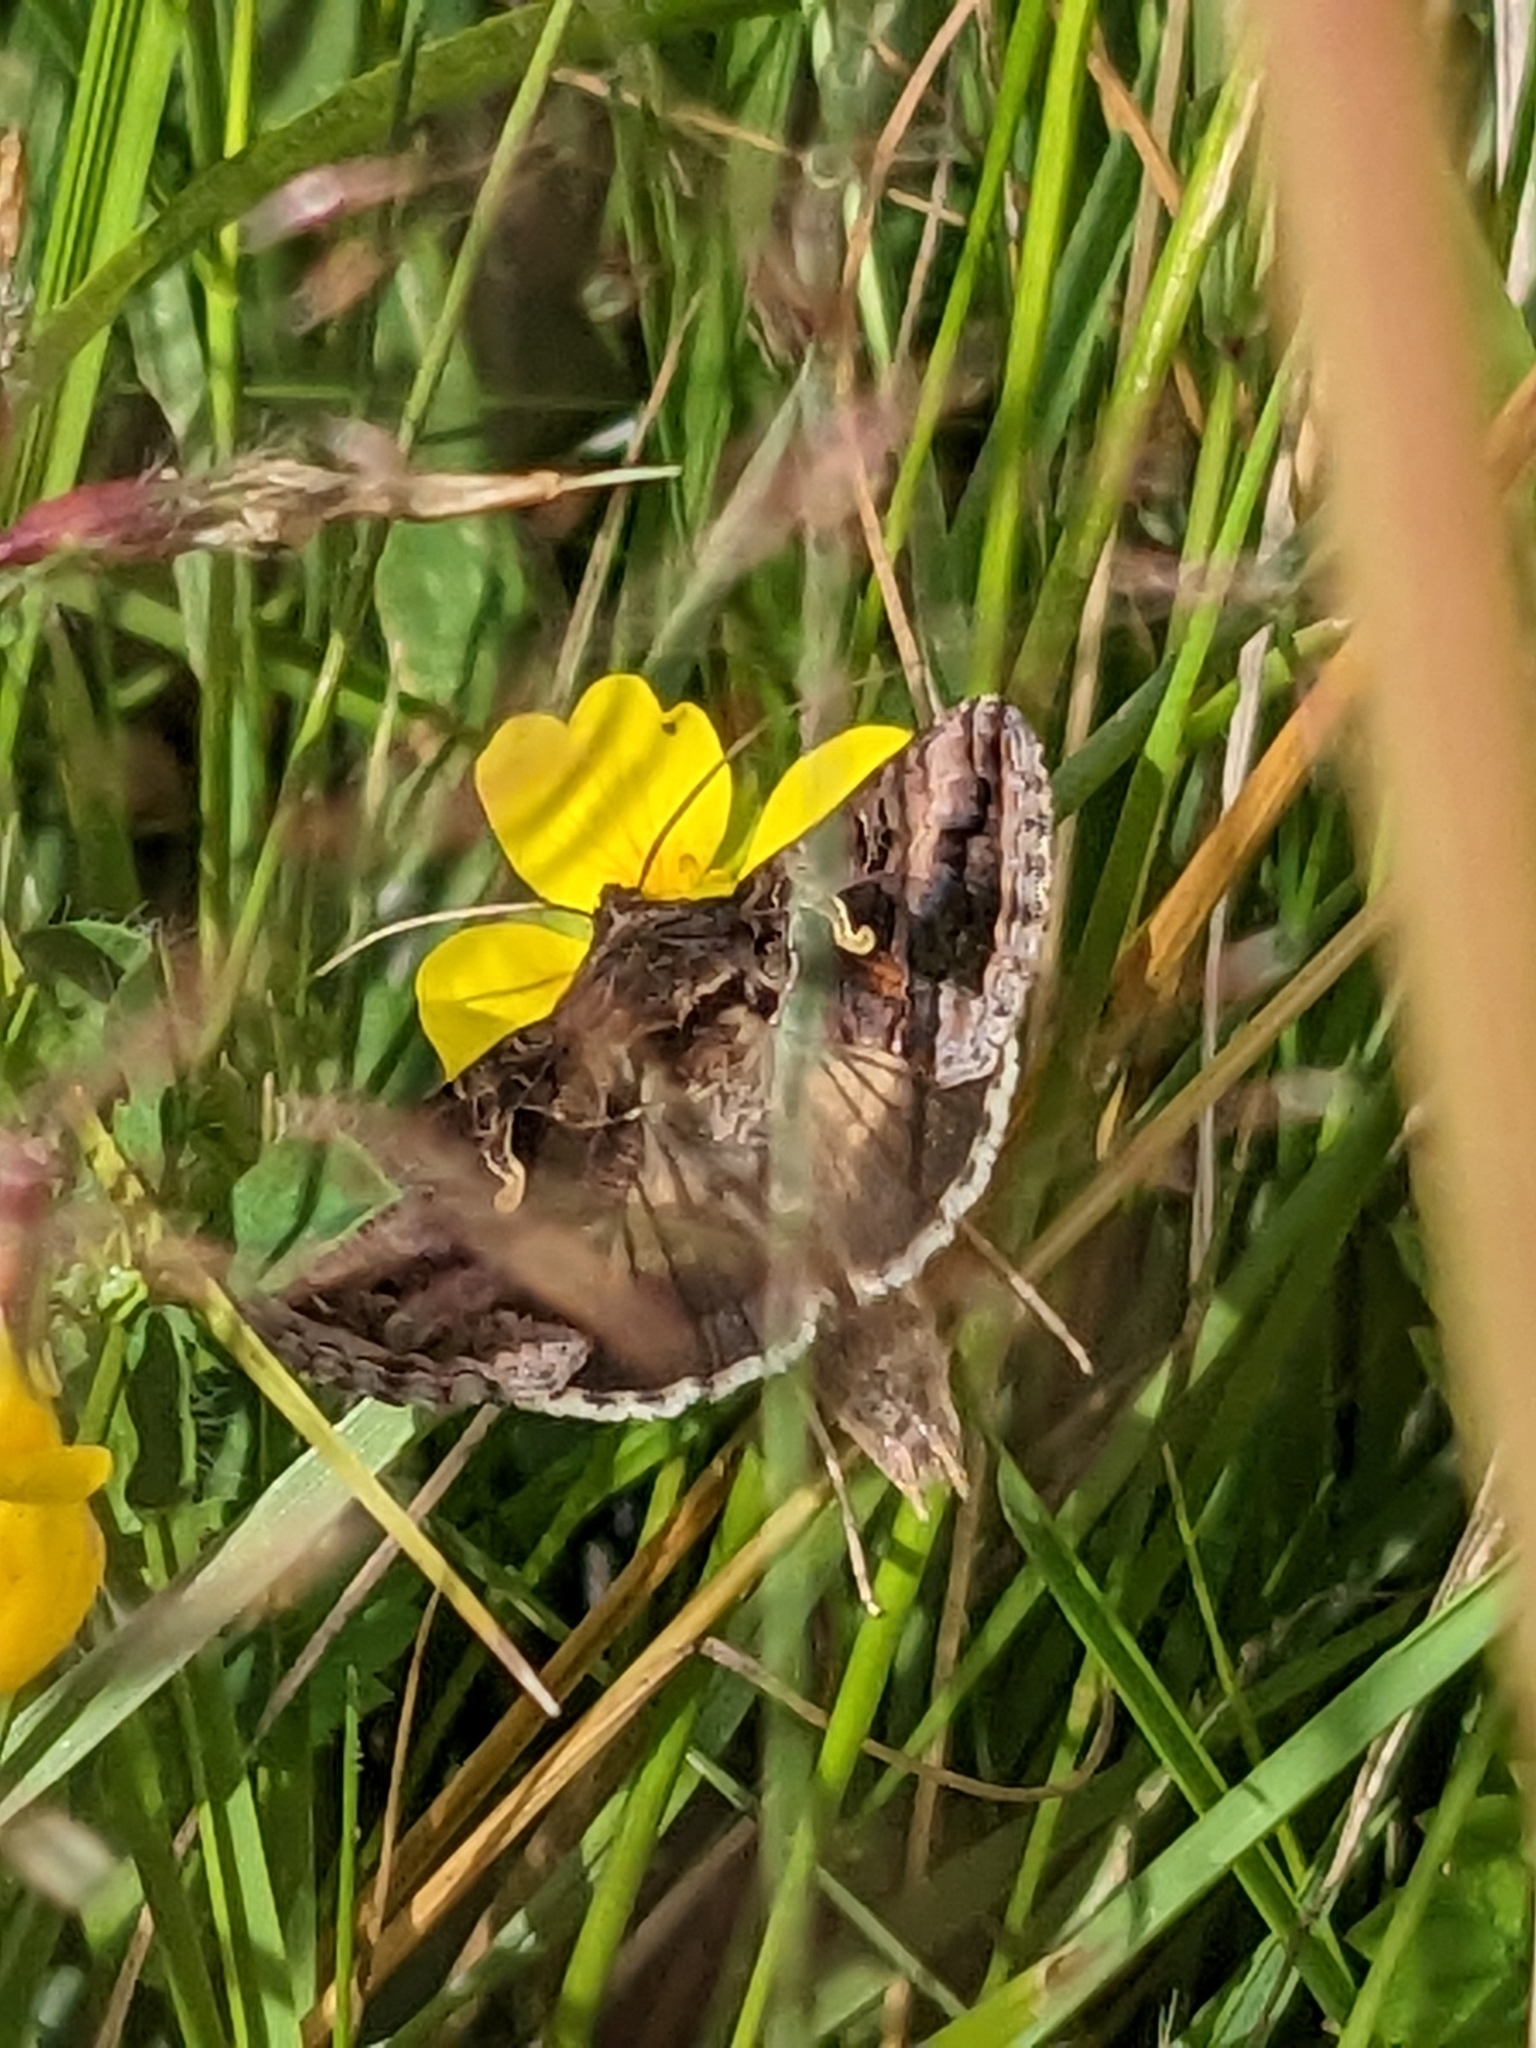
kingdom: Animalia
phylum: Arthropoda
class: Insecta
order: Lepidoptera
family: Noctuidae
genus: Autographa
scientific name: Autographa gamma
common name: Silver y
